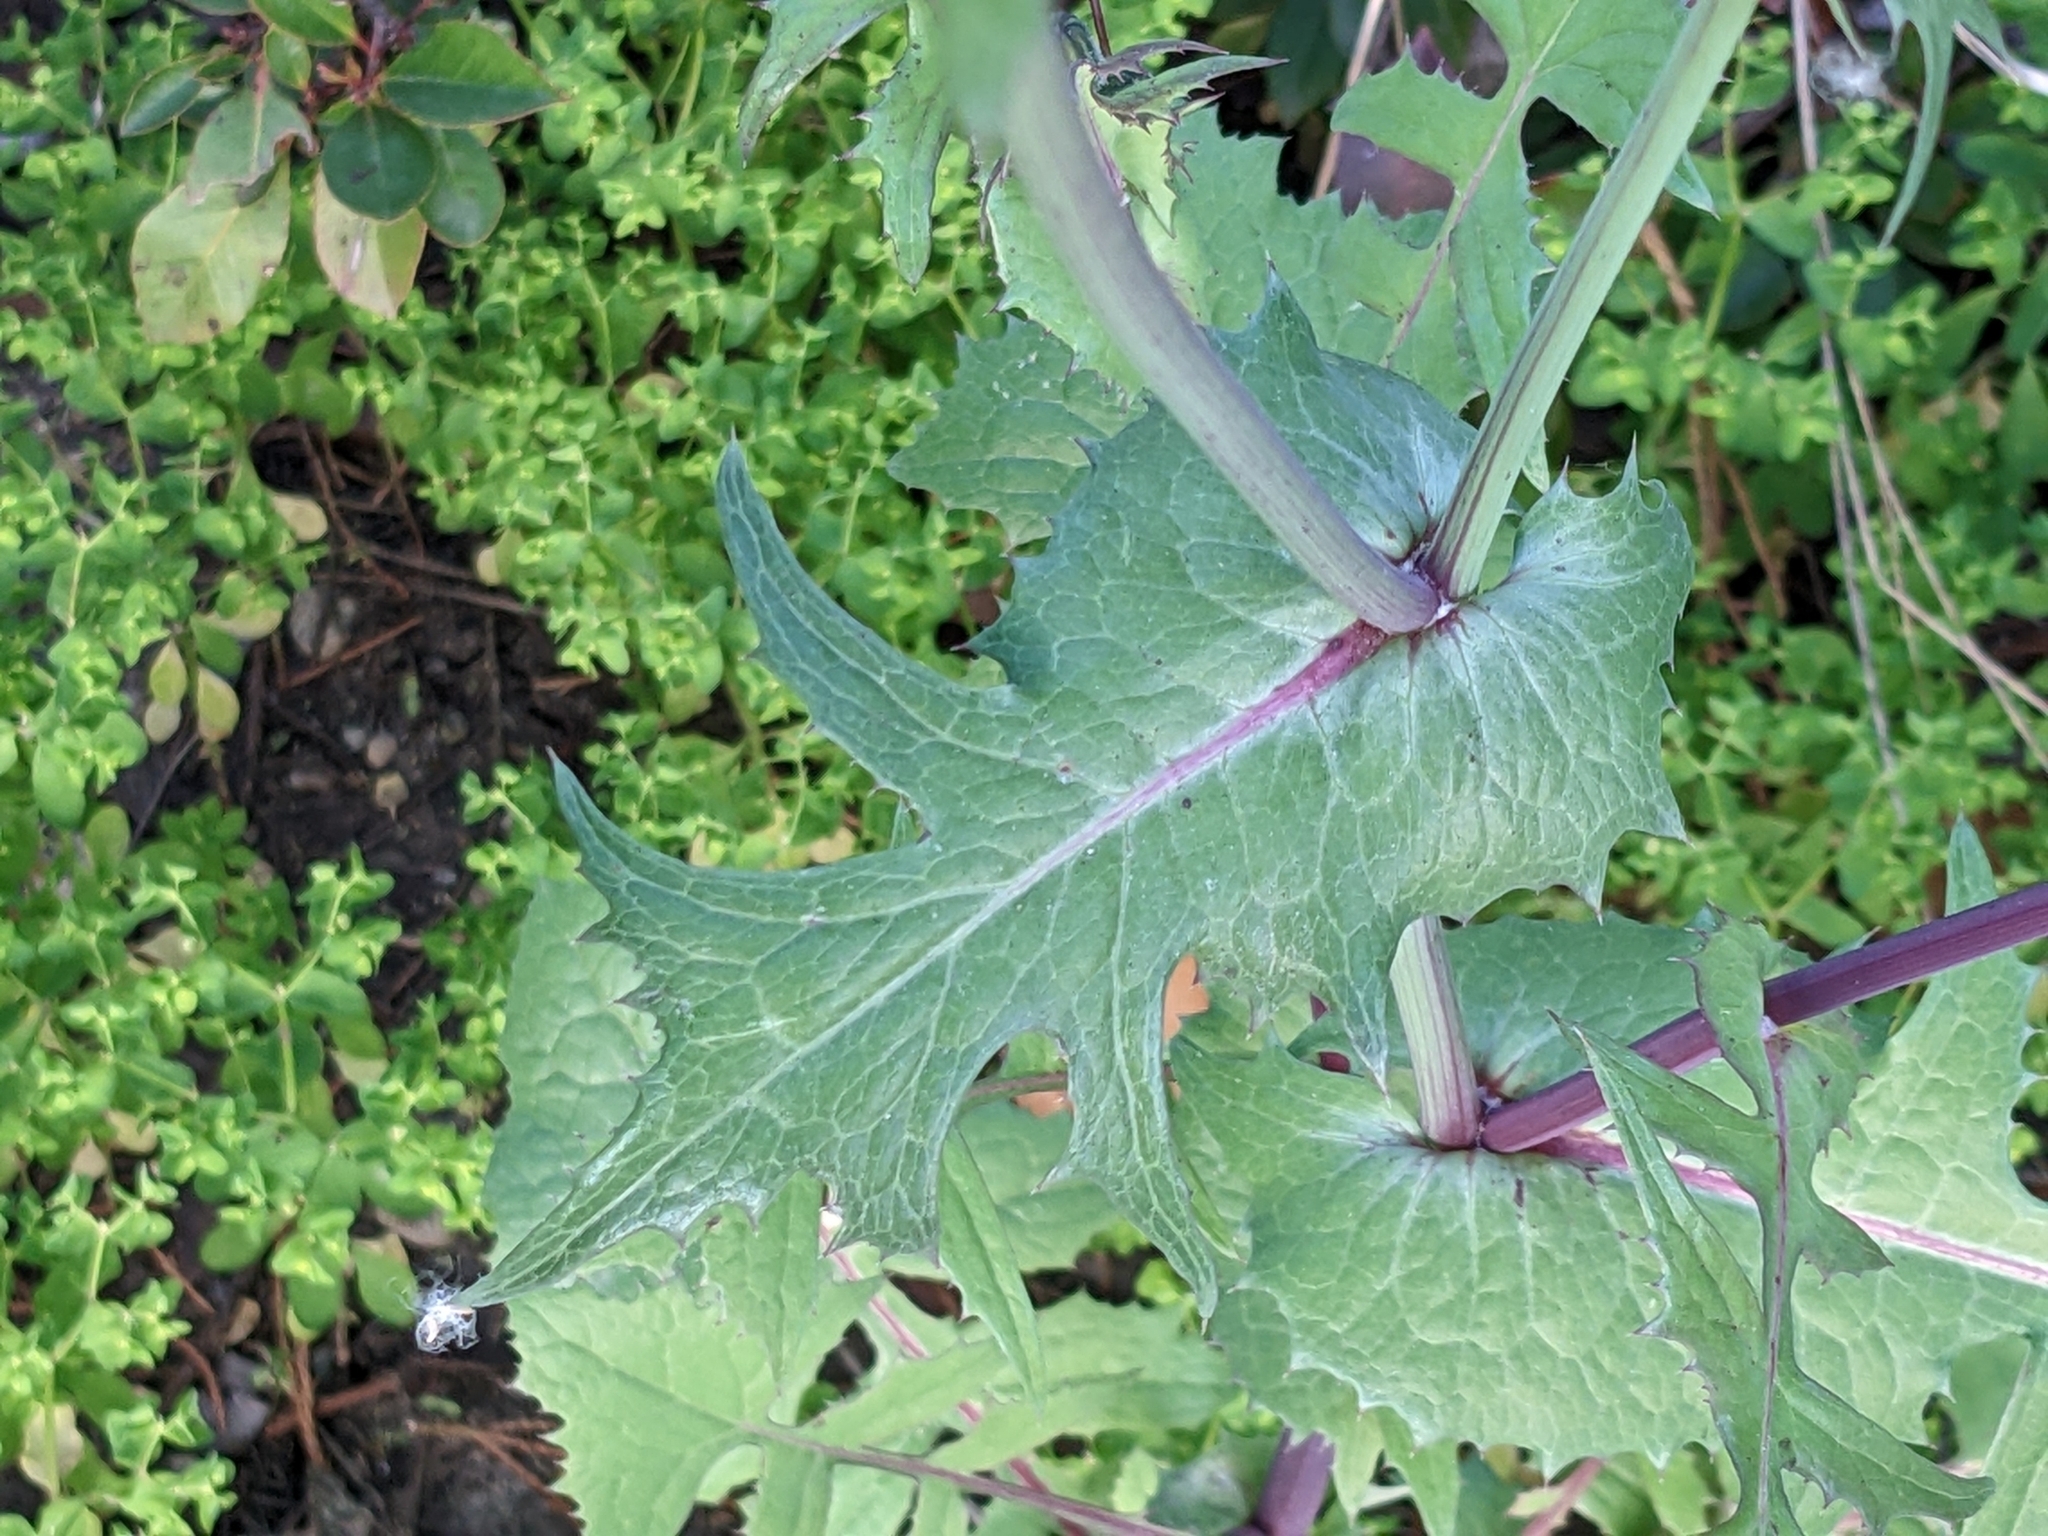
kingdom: Plantae
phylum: Tracheophyta
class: Magnoliopsida
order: Asterales
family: Asteraceae
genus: Sonchus
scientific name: Sonchus oleraceus
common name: Common sowthistle
